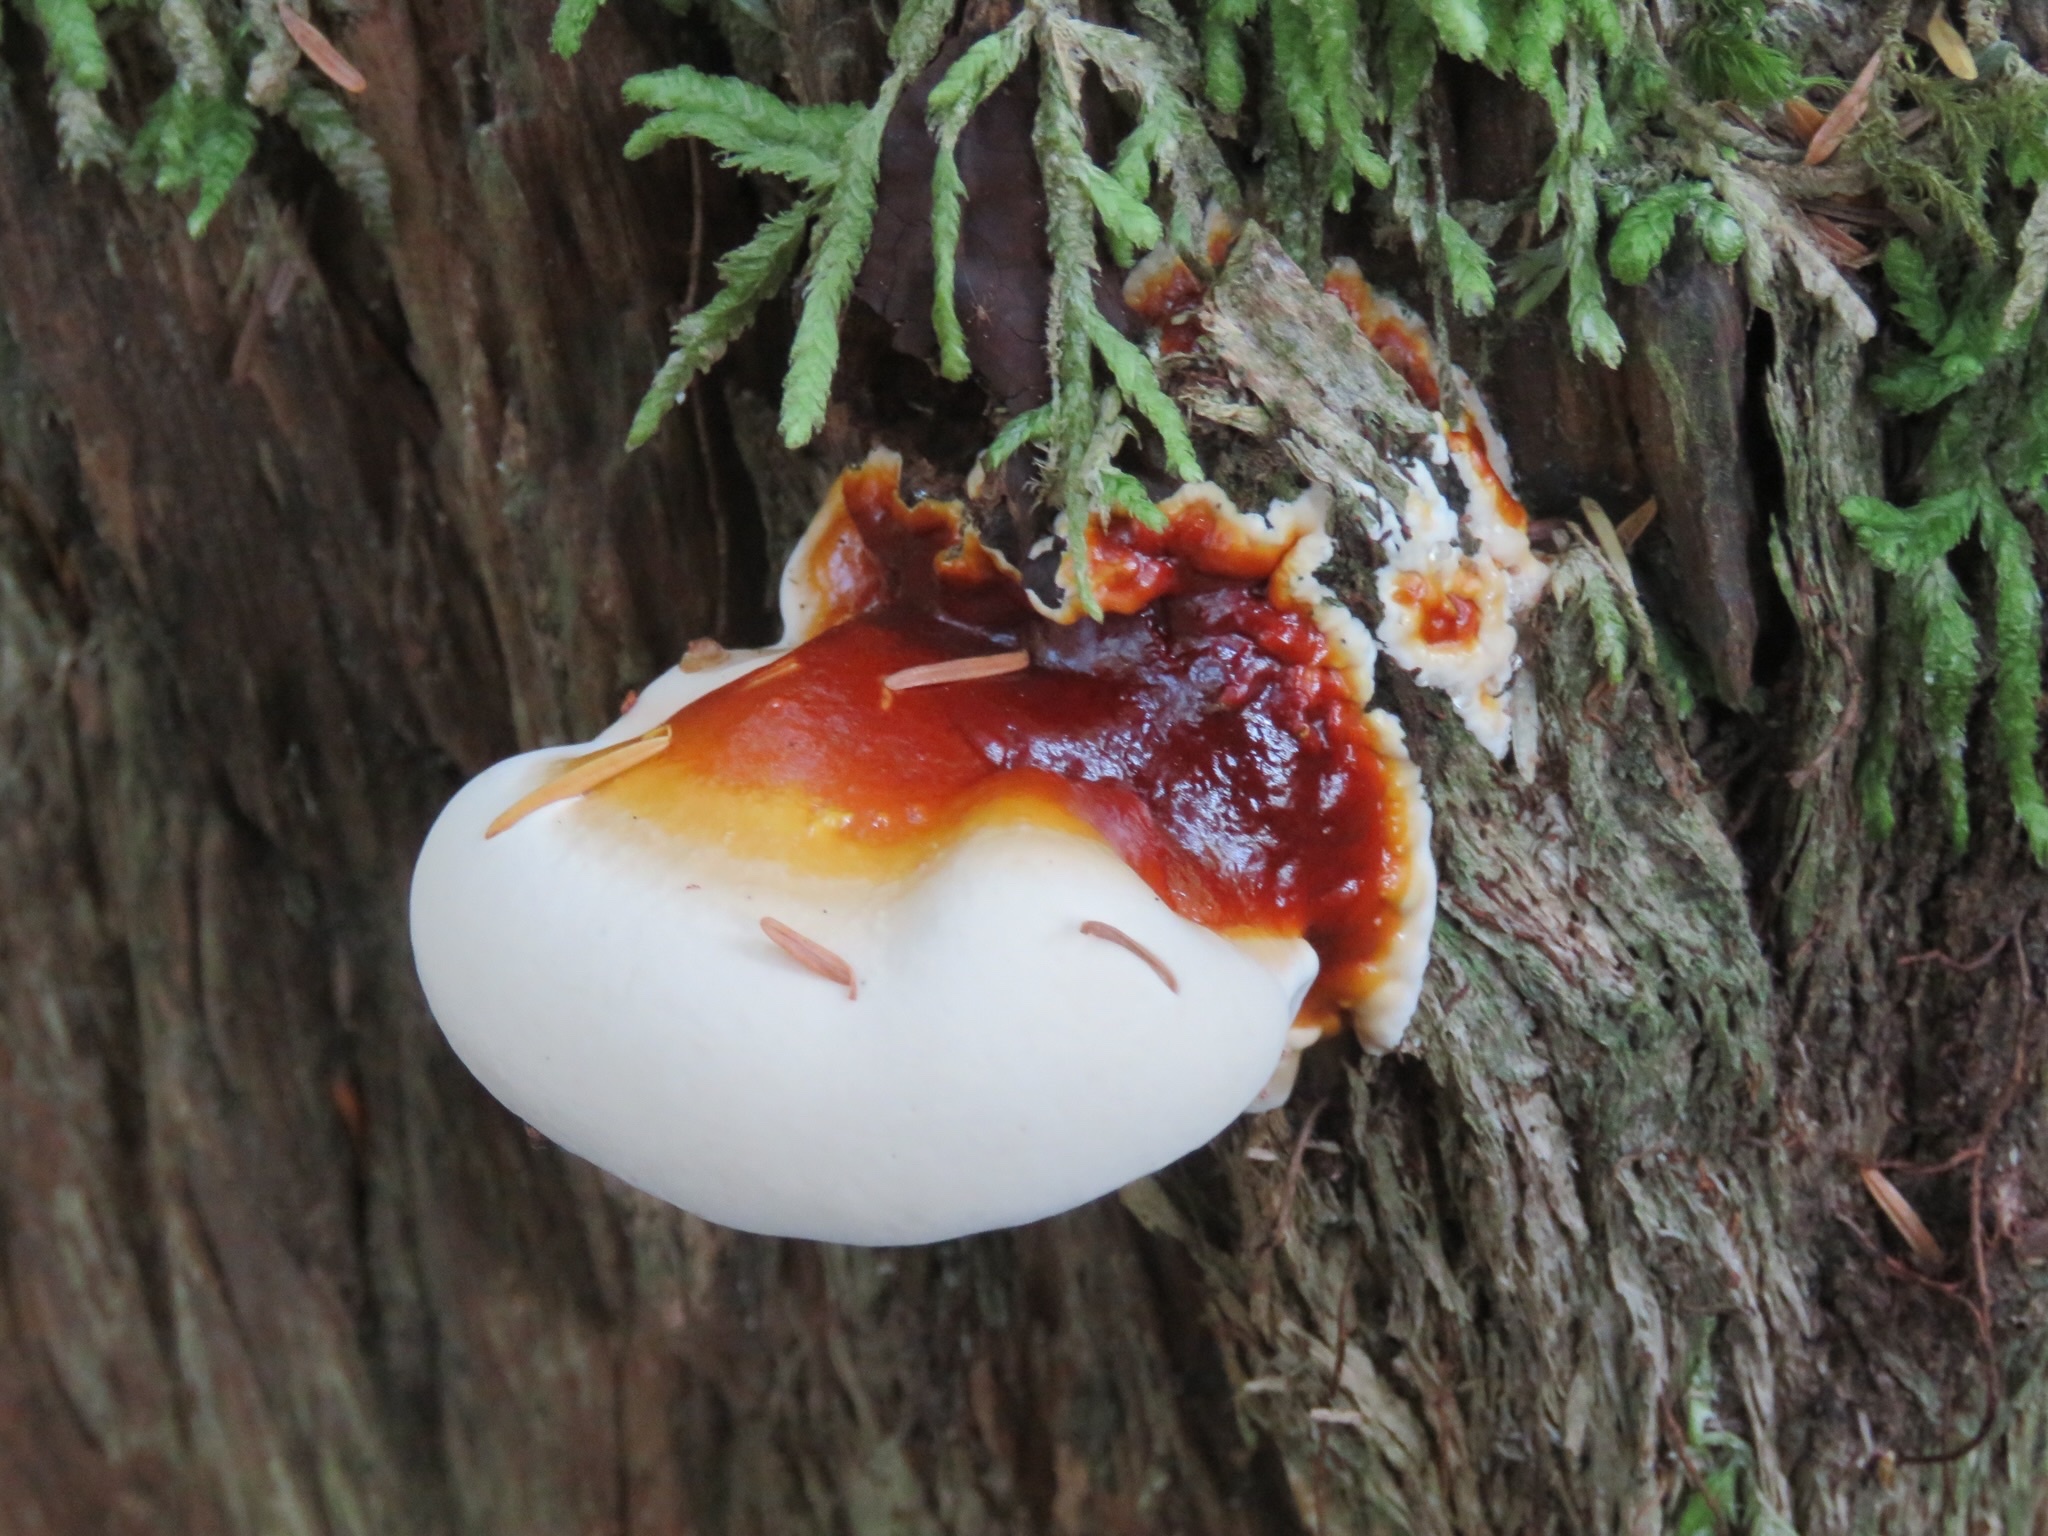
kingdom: Fungi
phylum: Basidiomycota
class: Agaricomycetes
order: Polyporales
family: Polyporaceae
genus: Ganoderma
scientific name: Ganoderma oregonense
